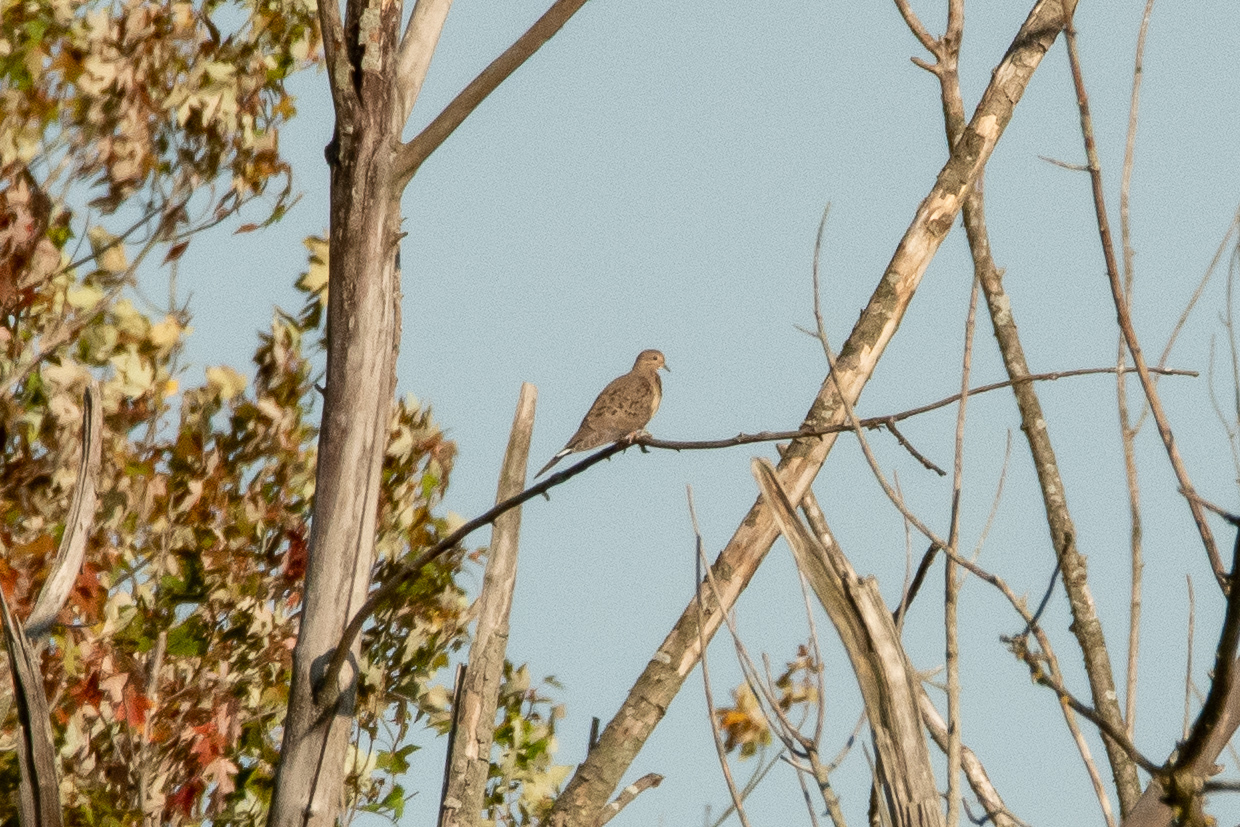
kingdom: Animalia
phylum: Chordata
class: Aves
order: Columbiformes
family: Columbidae
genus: Zenaida
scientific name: Zenaida macroura
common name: Mourning dove
